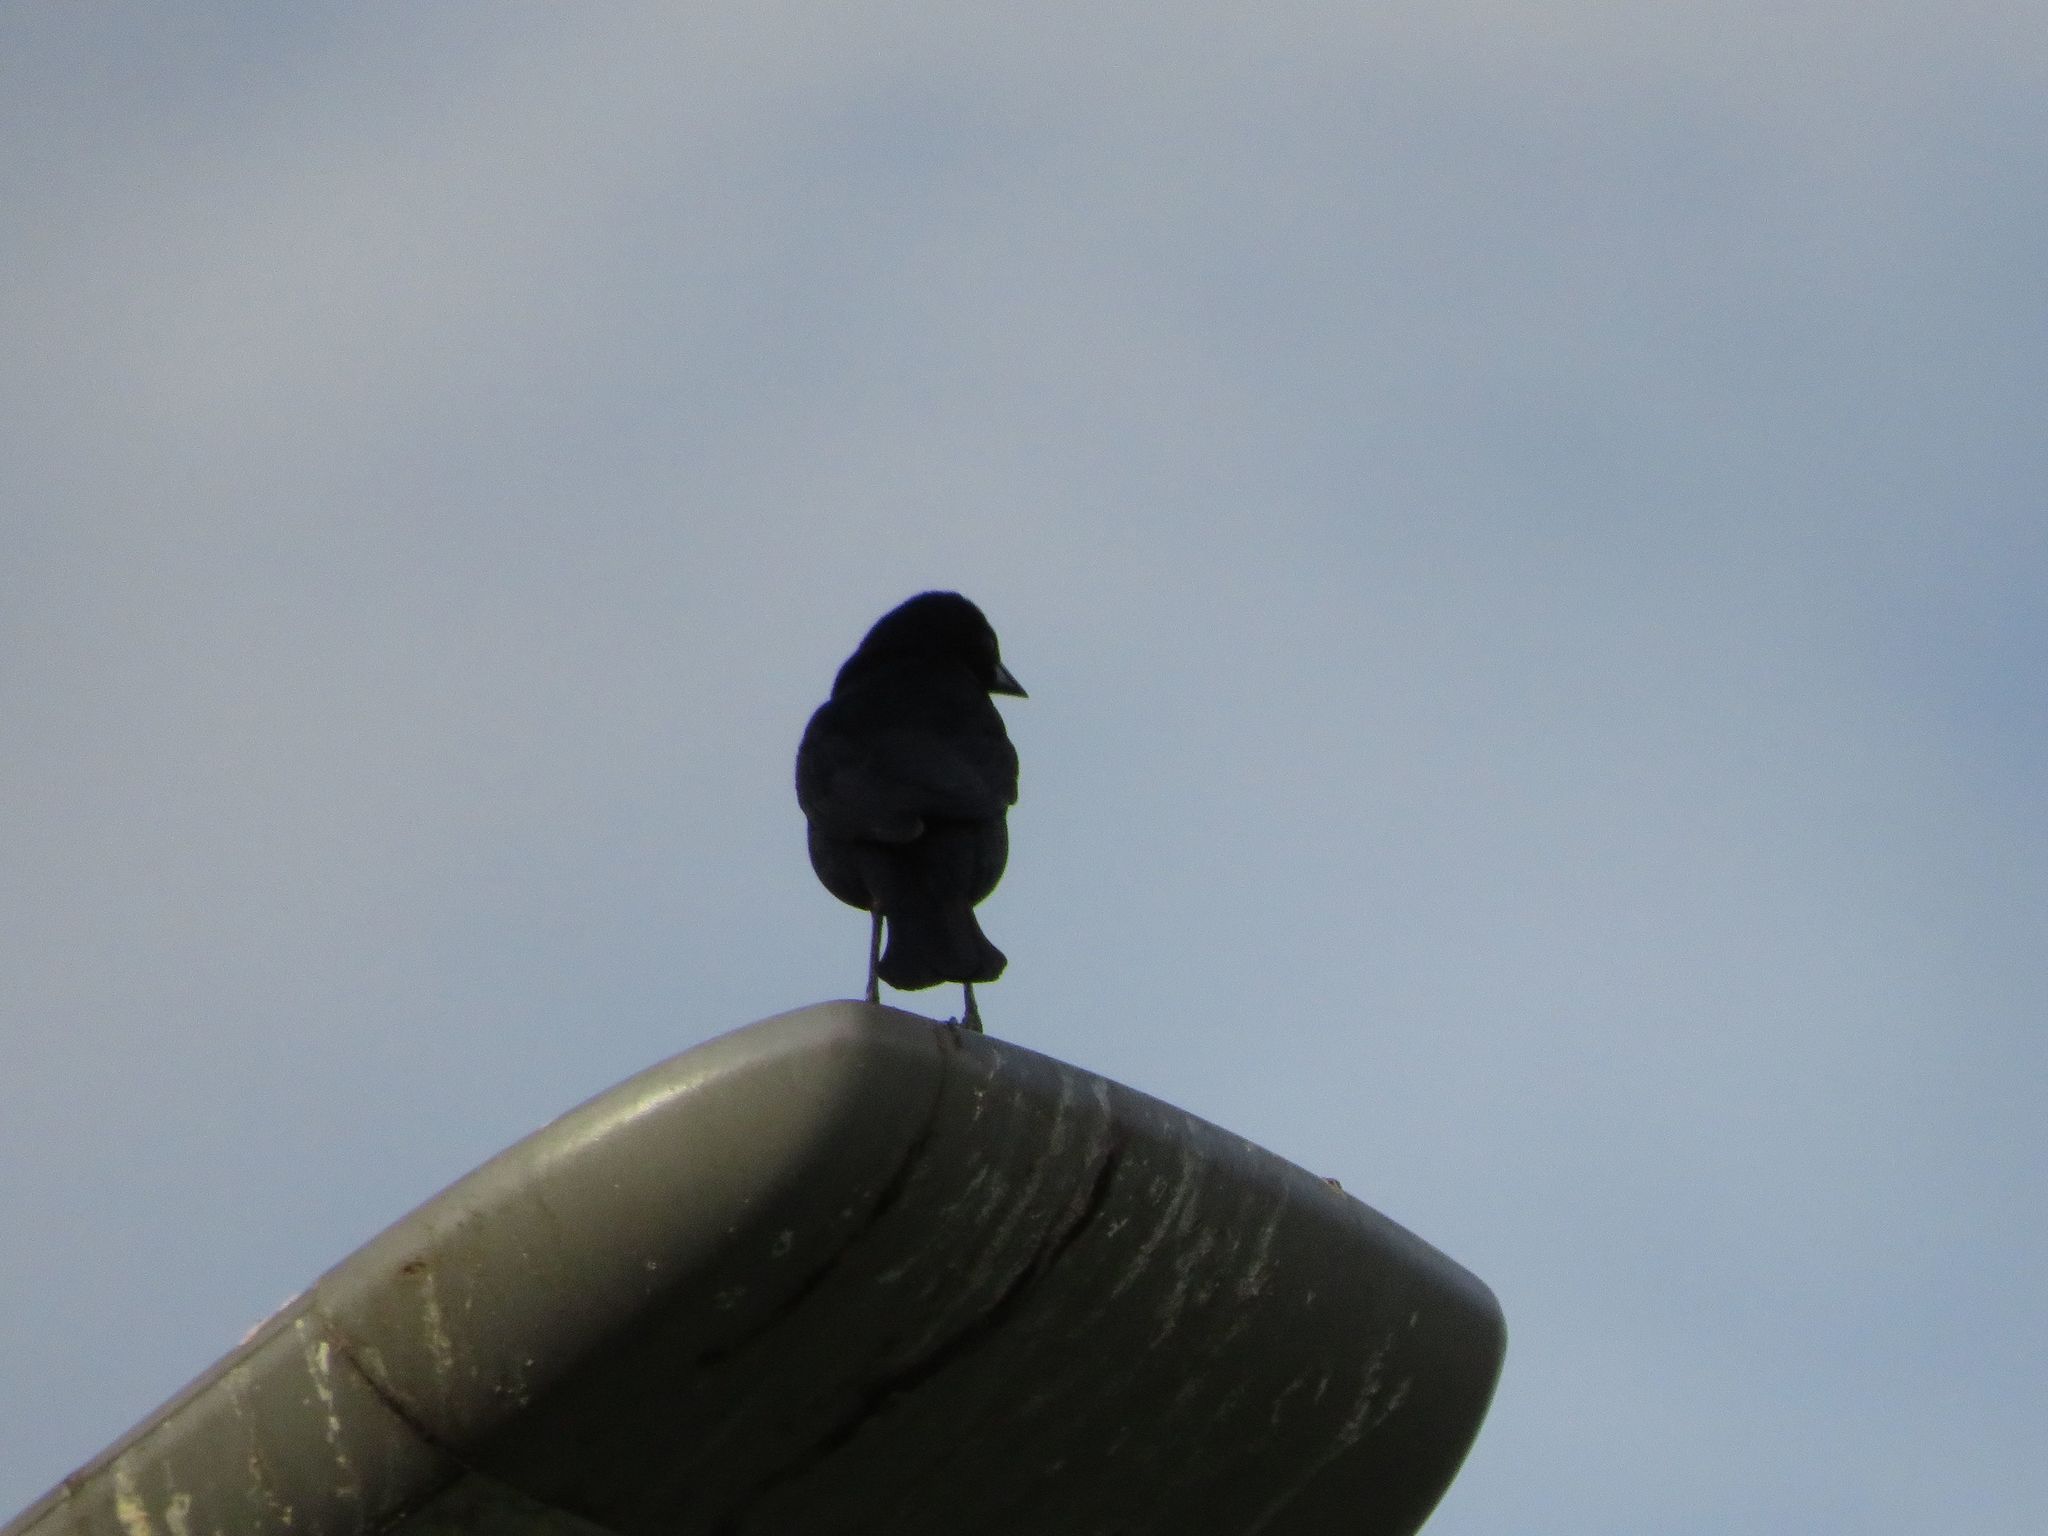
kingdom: Animalia
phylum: Chordata
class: Aves
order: Passeriformes
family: Icteridae
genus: Molothrus
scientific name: Molothrus bonariensis
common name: Shiny cowbird
